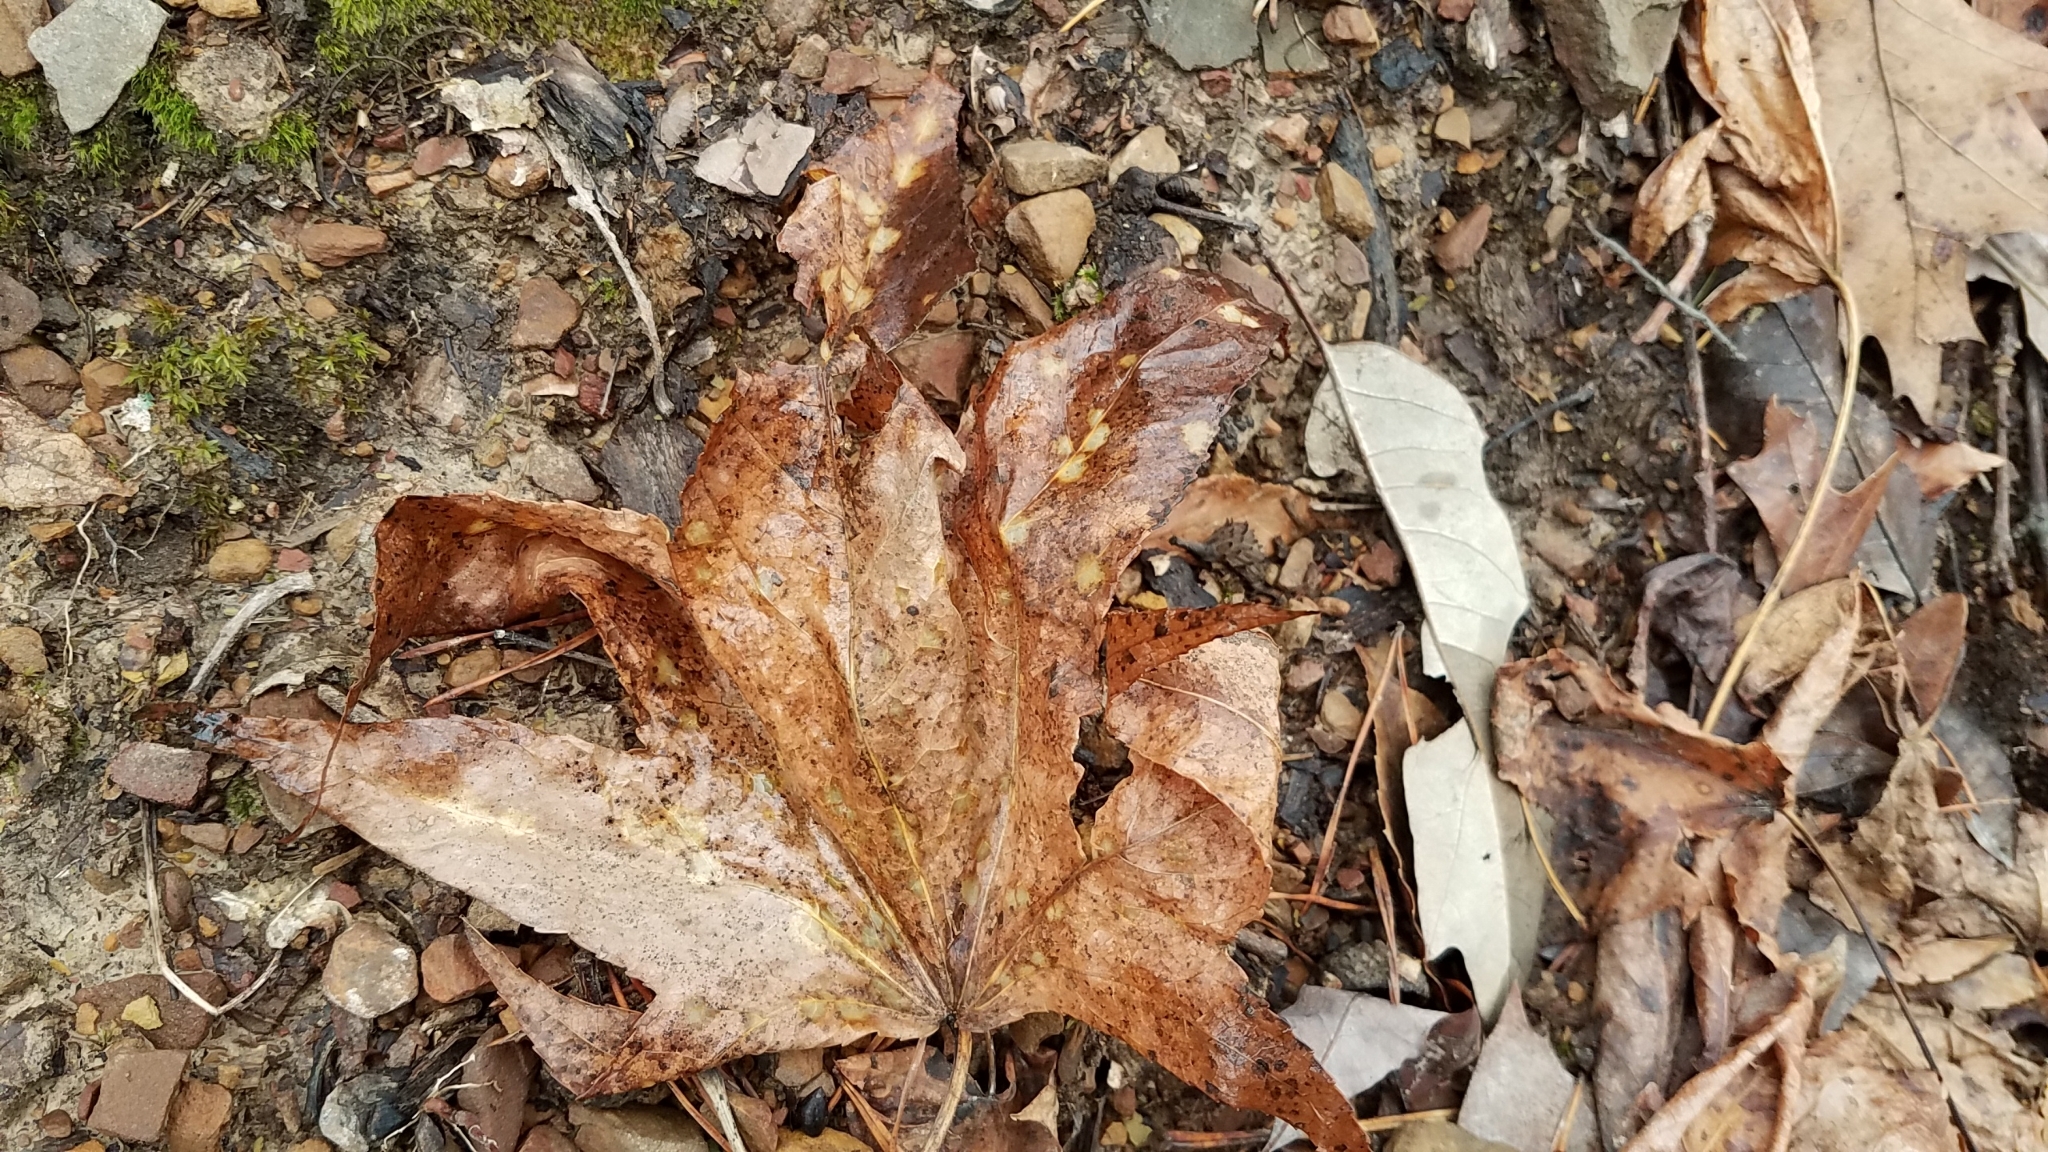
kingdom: Plantae
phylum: Tracheophyta
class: Magnoliopsida
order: Saxifragales
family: Altingiaceae
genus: Liquidambar
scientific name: Liquidambar styraciflua
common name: Sweet gum
